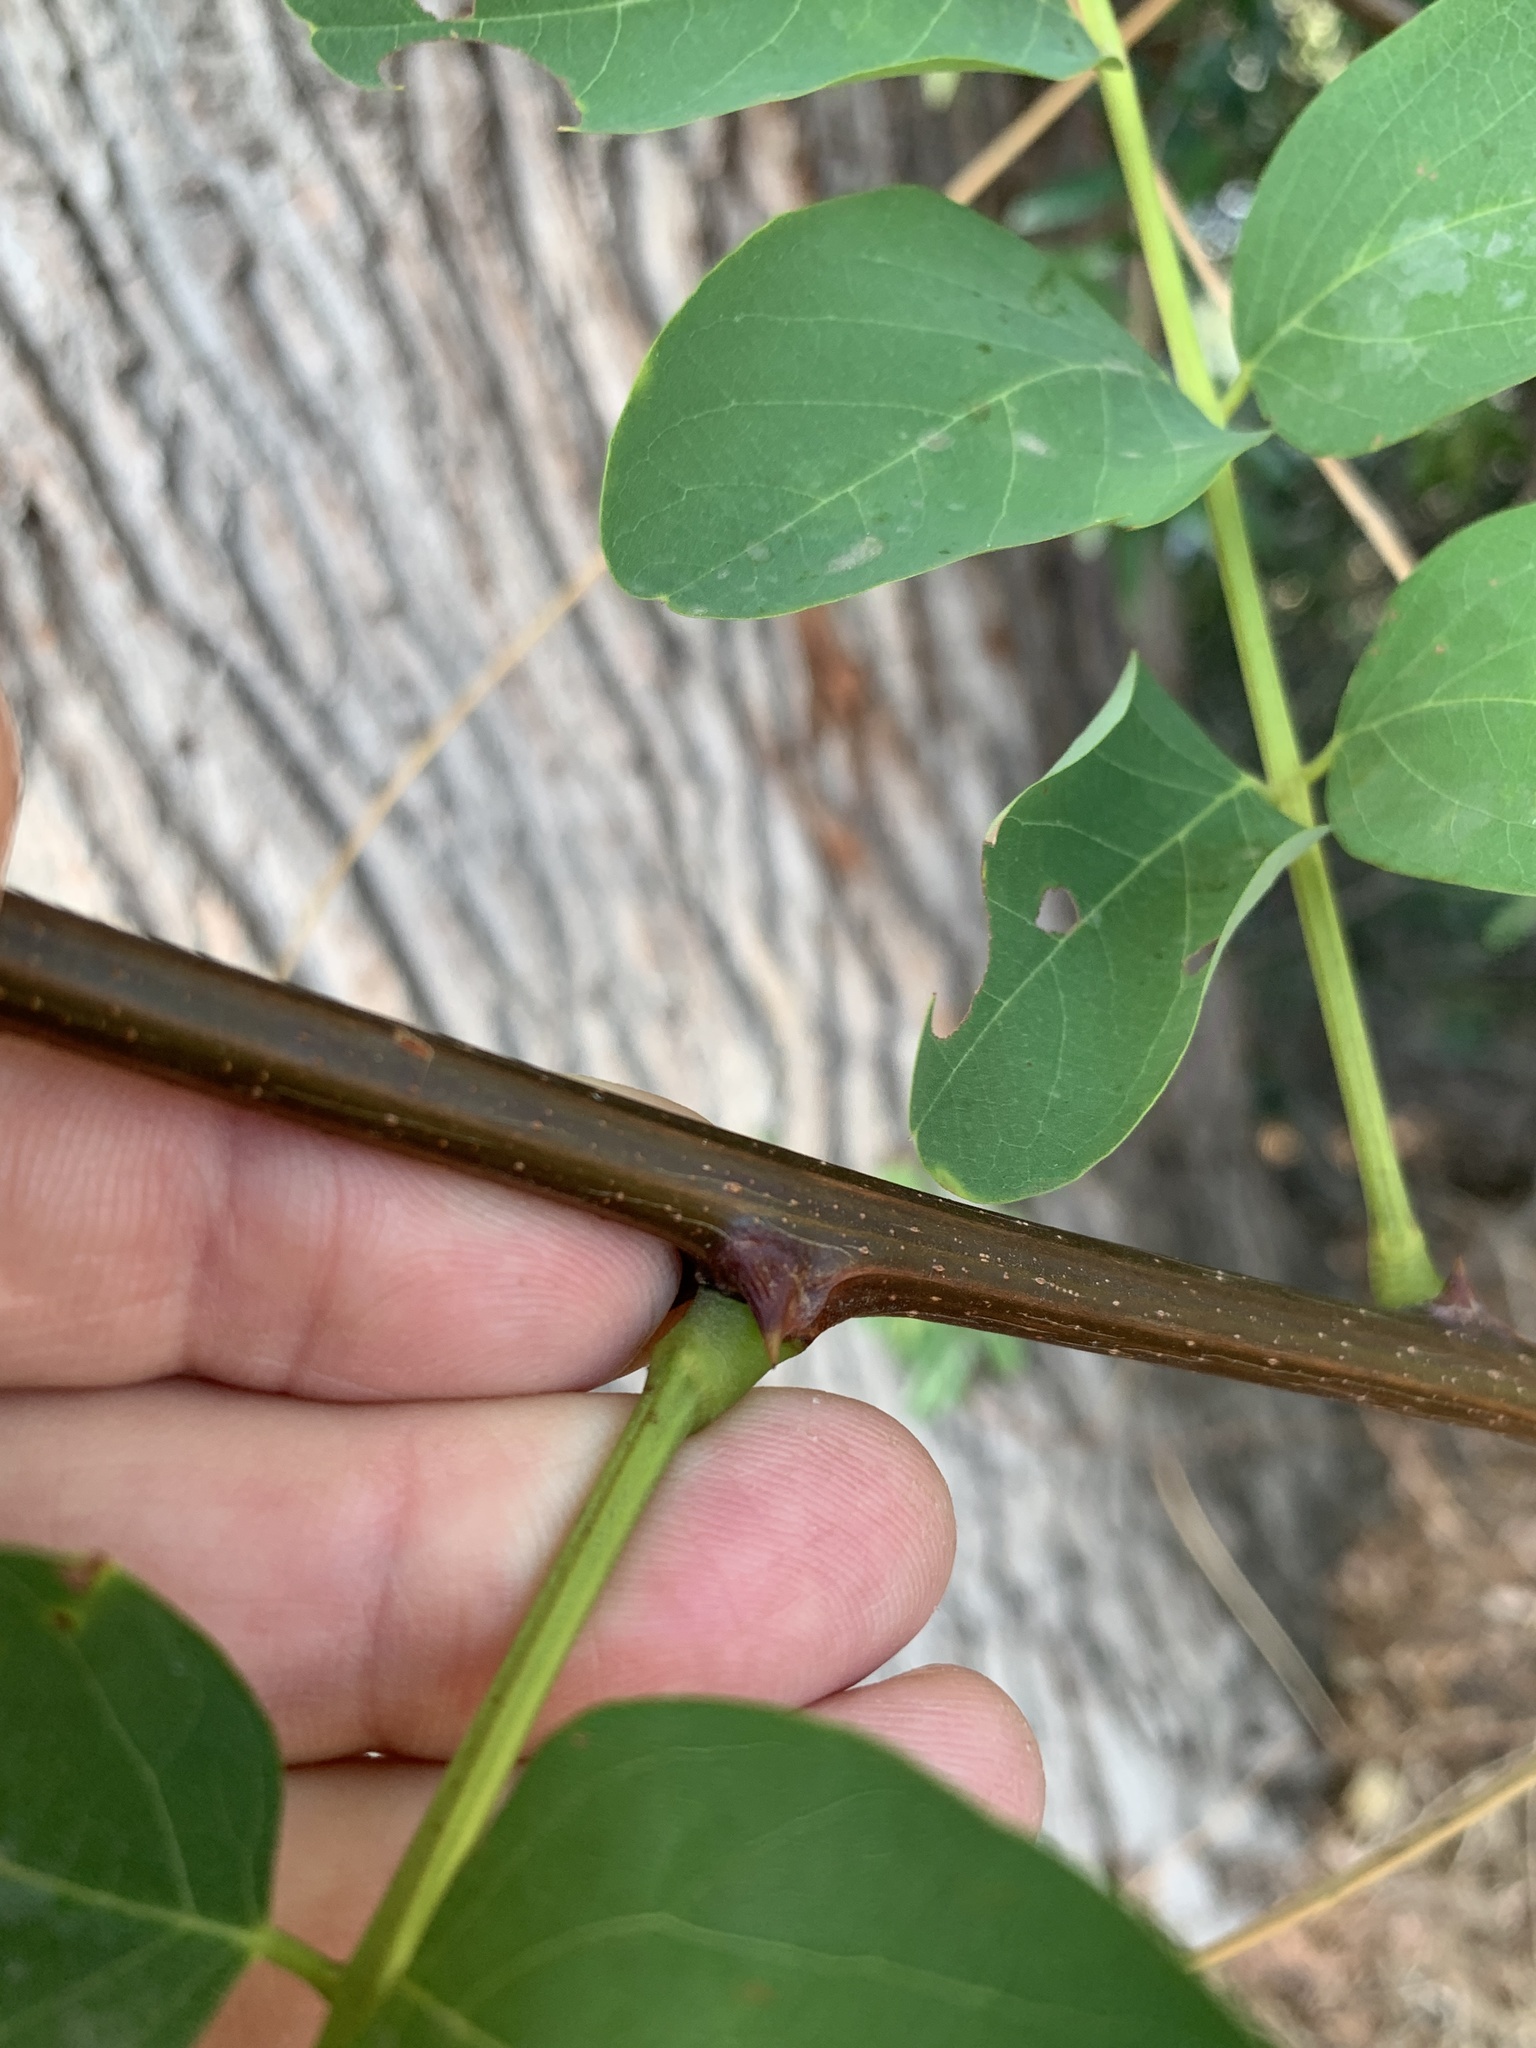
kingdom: Plantae
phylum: Tracheophyta
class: Magnoliopsida
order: Fabales
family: Fabaceae
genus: Robinia
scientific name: Robinia pseudoacacia
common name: Black locust
